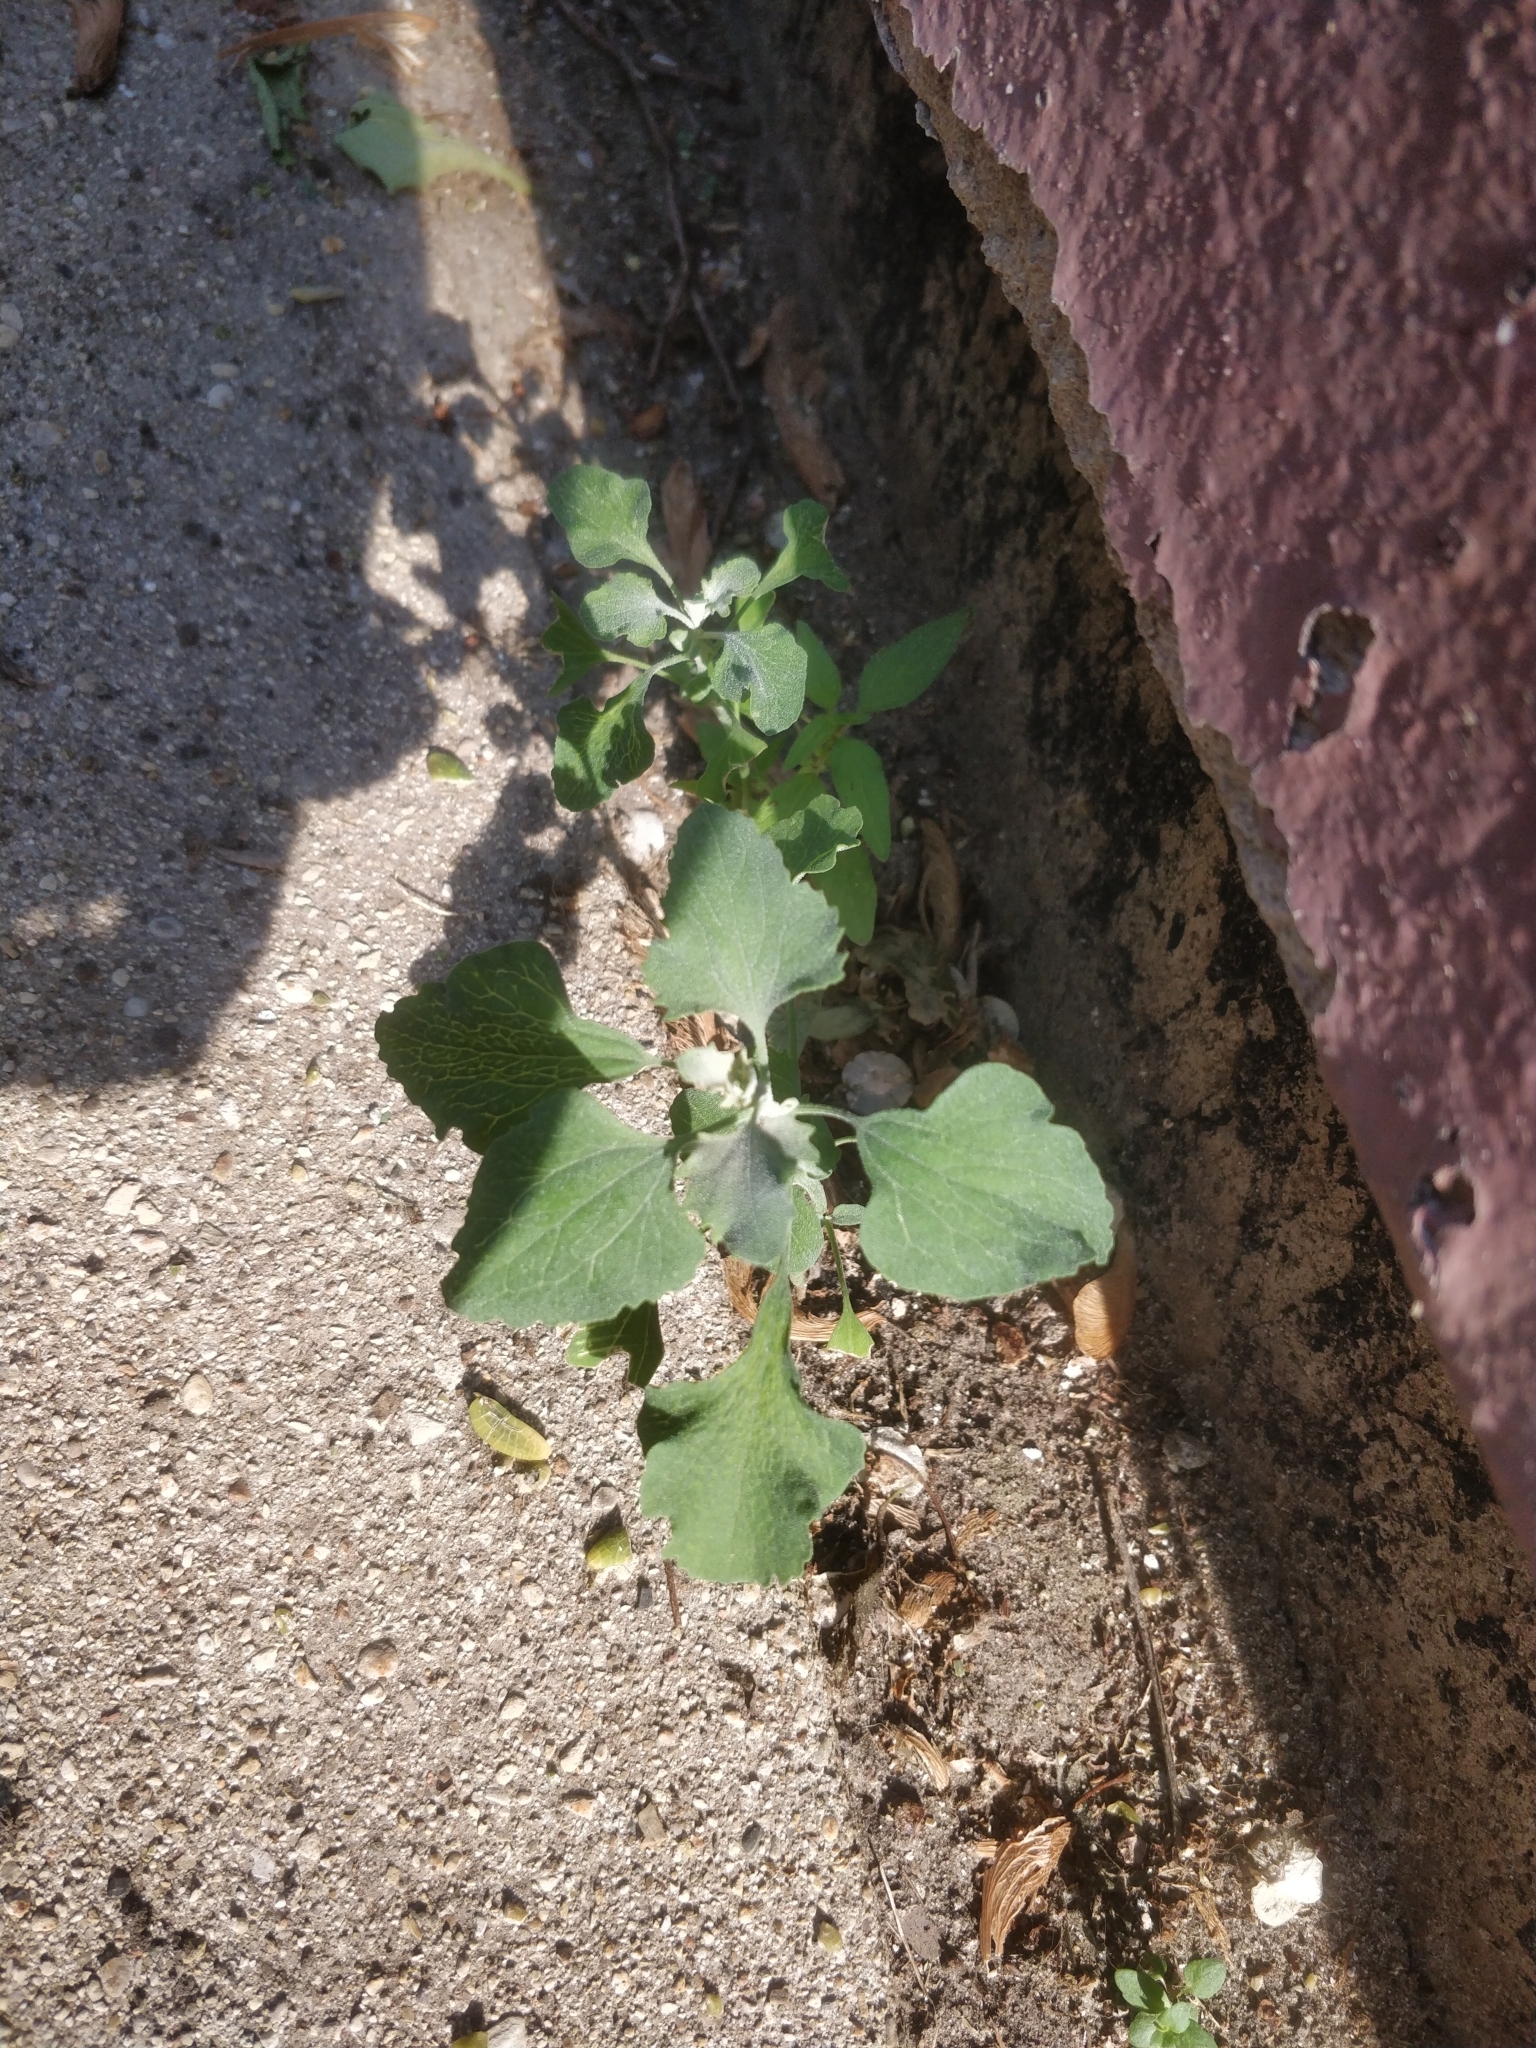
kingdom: Plantae
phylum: Tracheophyta
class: Magnoliopsida
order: Caryophyllales
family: Amaranthaceae
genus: Chenopodium
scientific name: Chenopodium album
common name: Fat-hen
